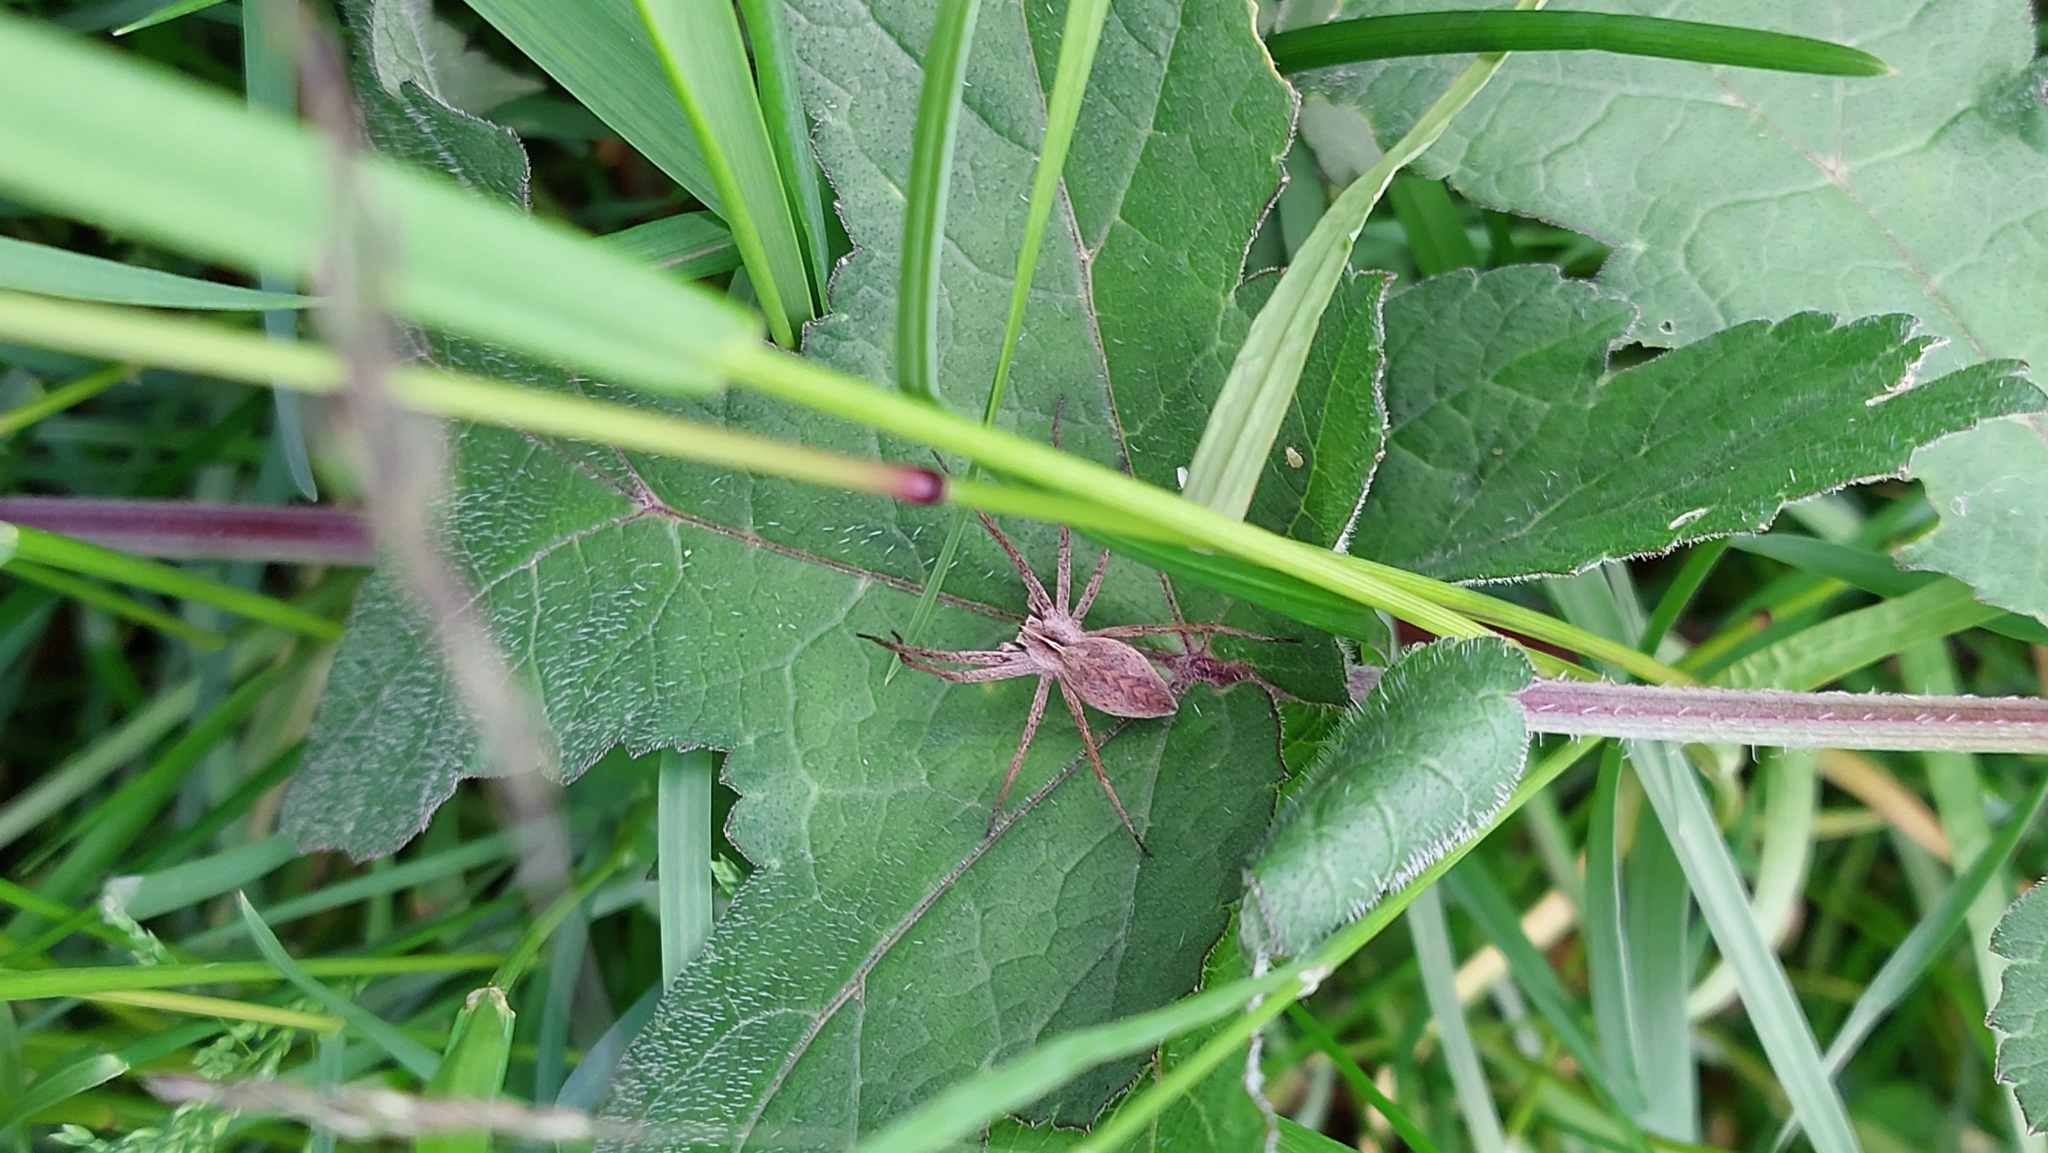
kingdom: Animalia
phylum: Arthropoda
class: Arachnida
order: Araneae
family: Pisauridae
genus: Pisaura
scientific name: Pisaura mirabilis
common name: Tent spider
